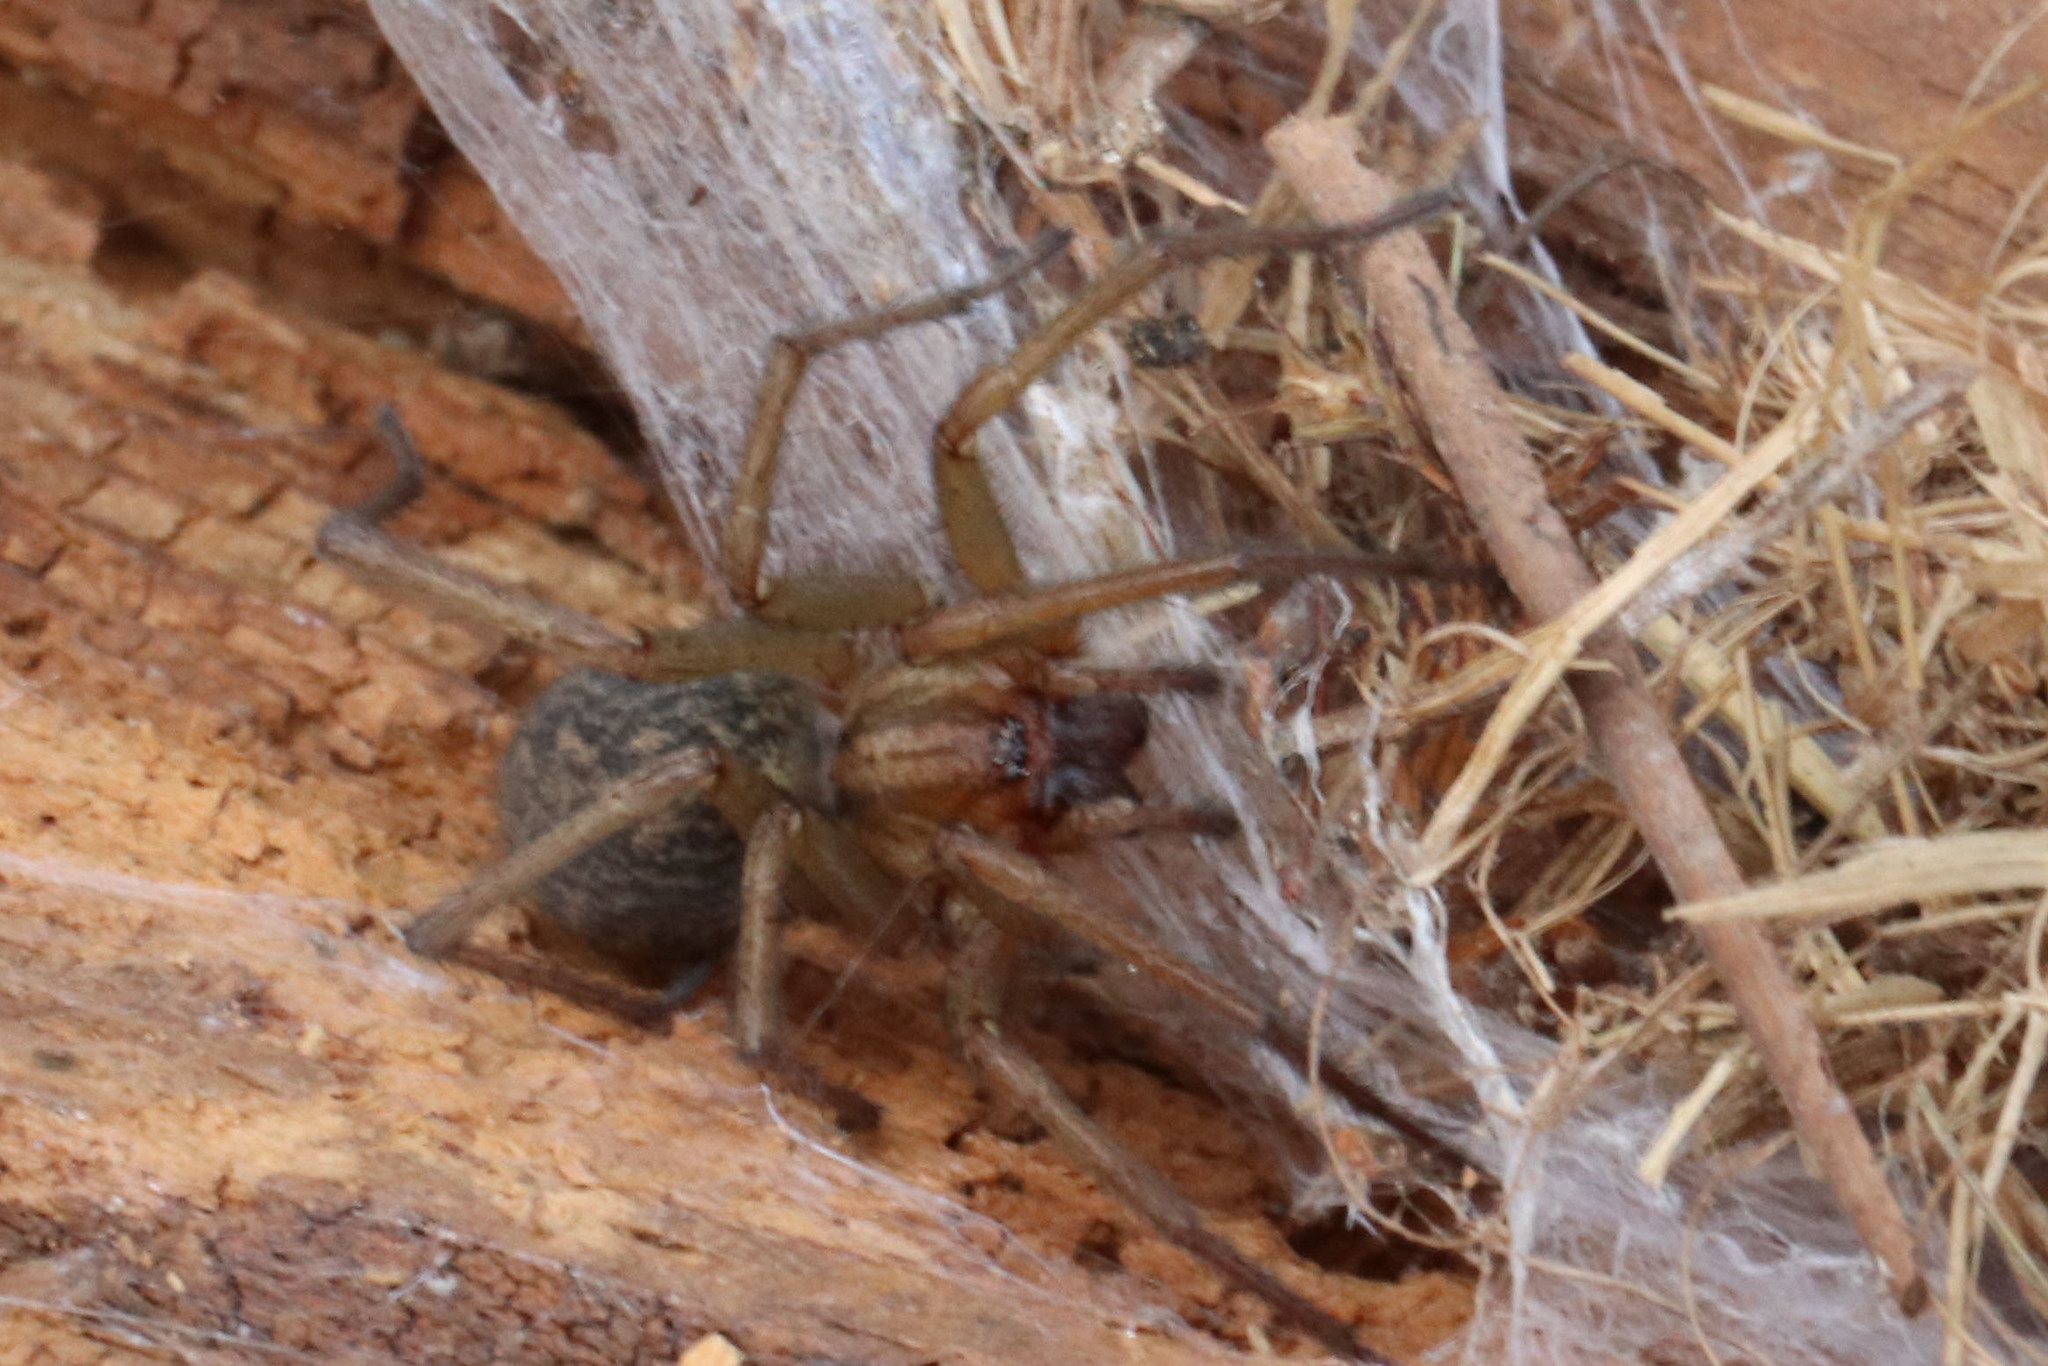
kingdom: Animalia
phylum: Arthropoda
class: Arachnida
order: Araneae
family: Agelenidae
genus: Eratigena
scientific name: Eratigena agrestis
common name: Hobo spider
